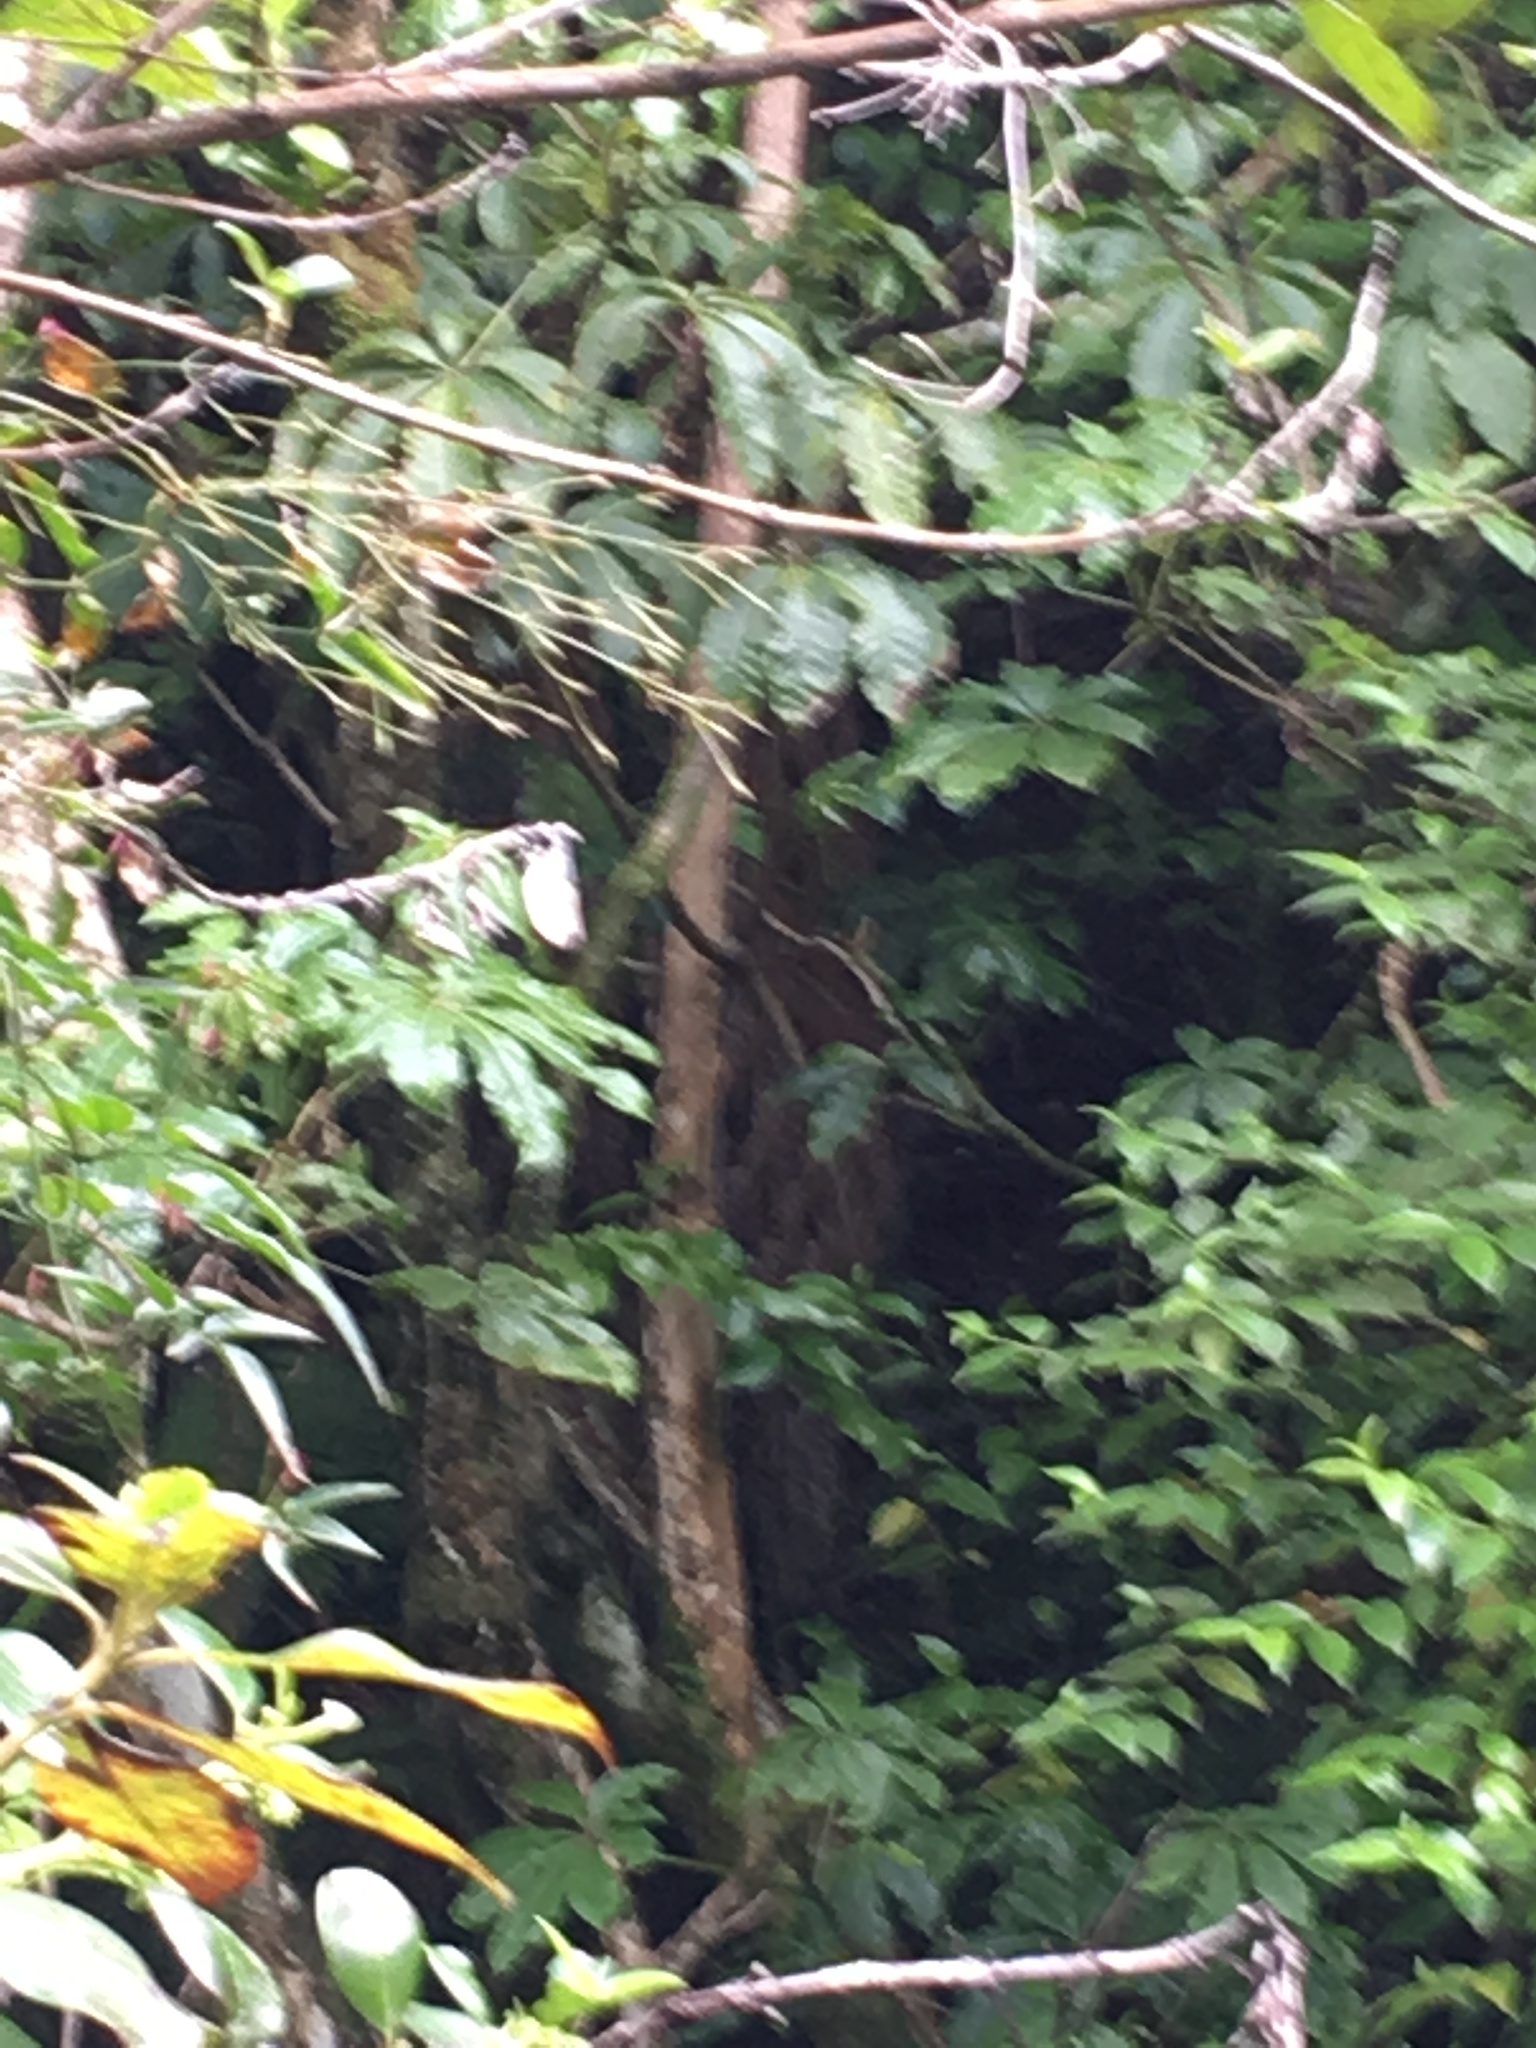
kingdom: Plantae
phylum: Tracheophyta
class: Magnoliopsida
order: Apiales
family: Araliaceae
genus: Schefflera
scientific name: Schefflera digitata
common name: Pate
